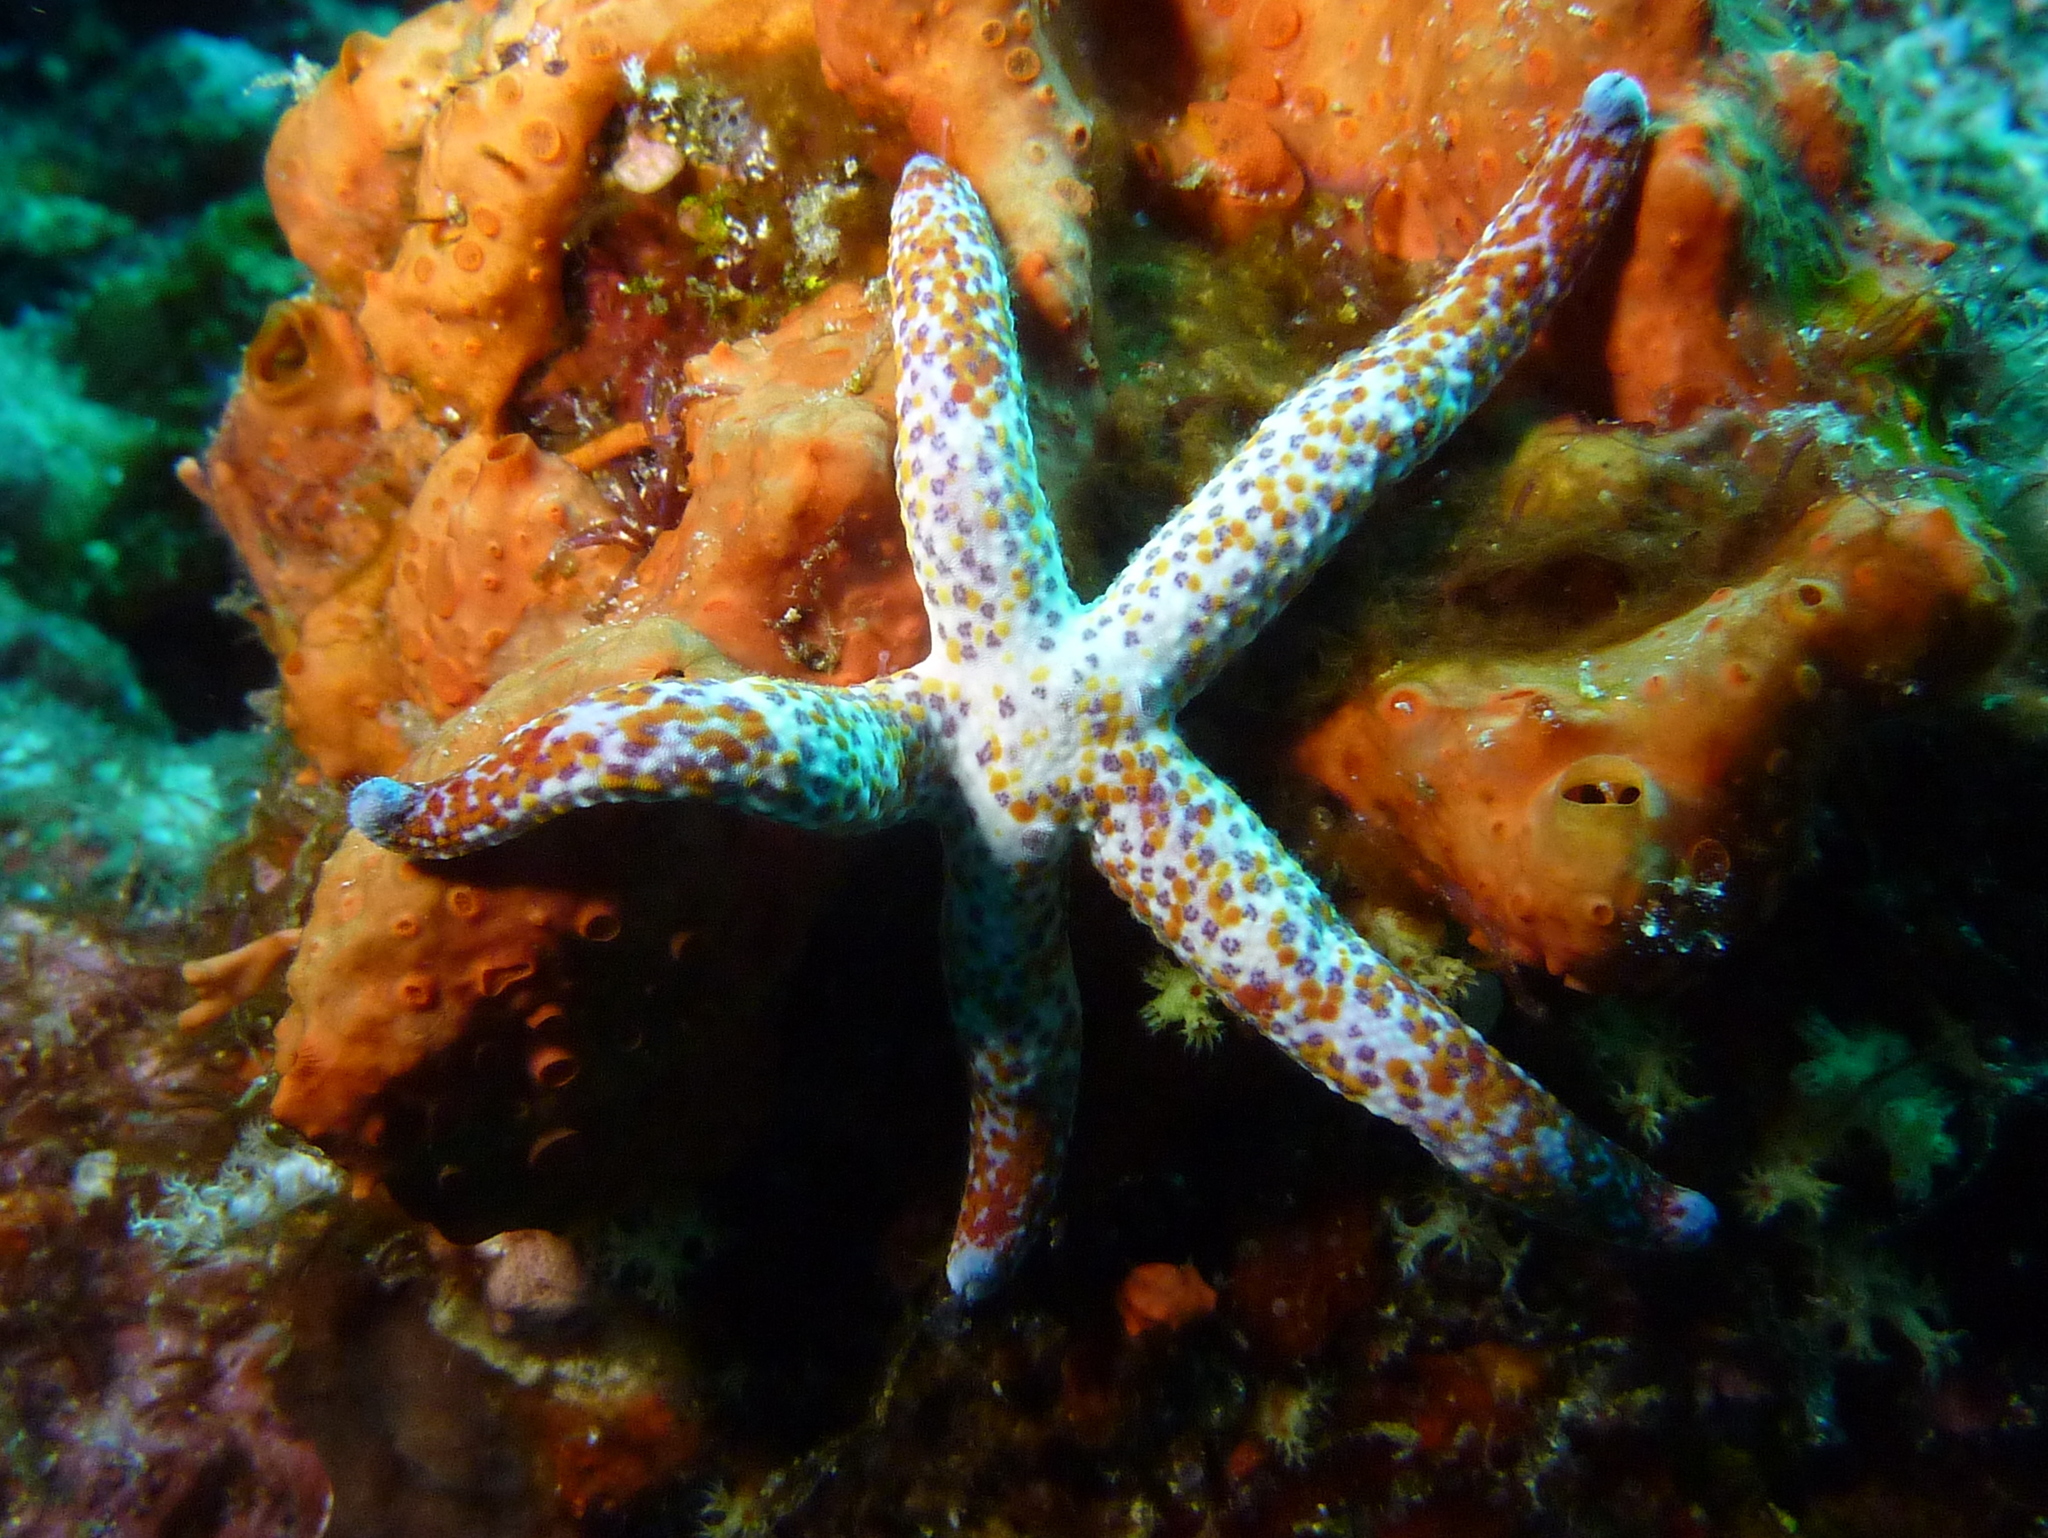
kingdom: Animalia
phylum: Echinodermata
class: Asteroidea
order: Valvatida
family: Ophidiasteridae
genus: Linckia
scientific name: Linckia multifora
